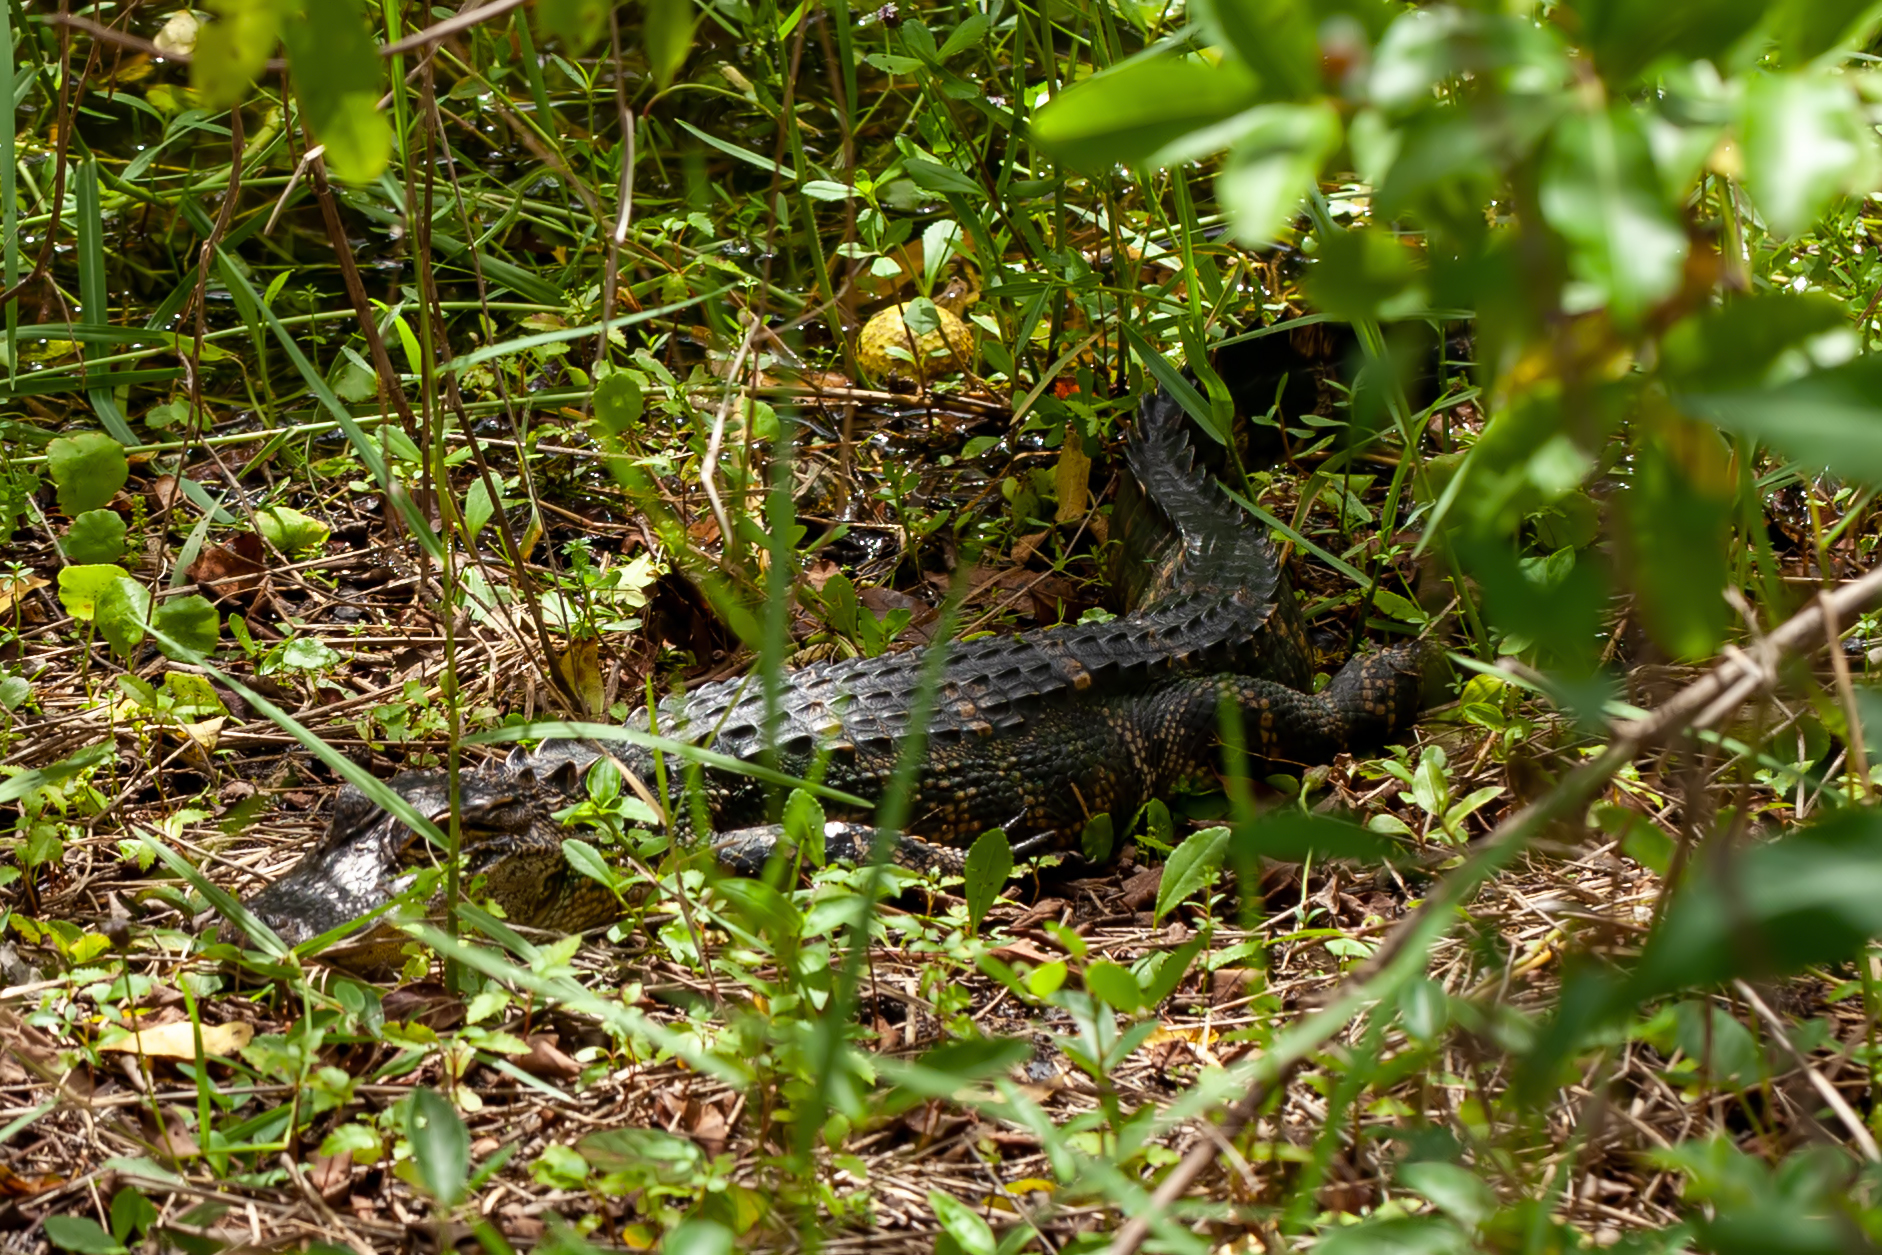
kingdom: Animalia
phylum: Chordata
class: Crocodylia
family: Alligatoridae
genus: Alligator
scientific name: Alligator mississippiensis
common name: American alligator
